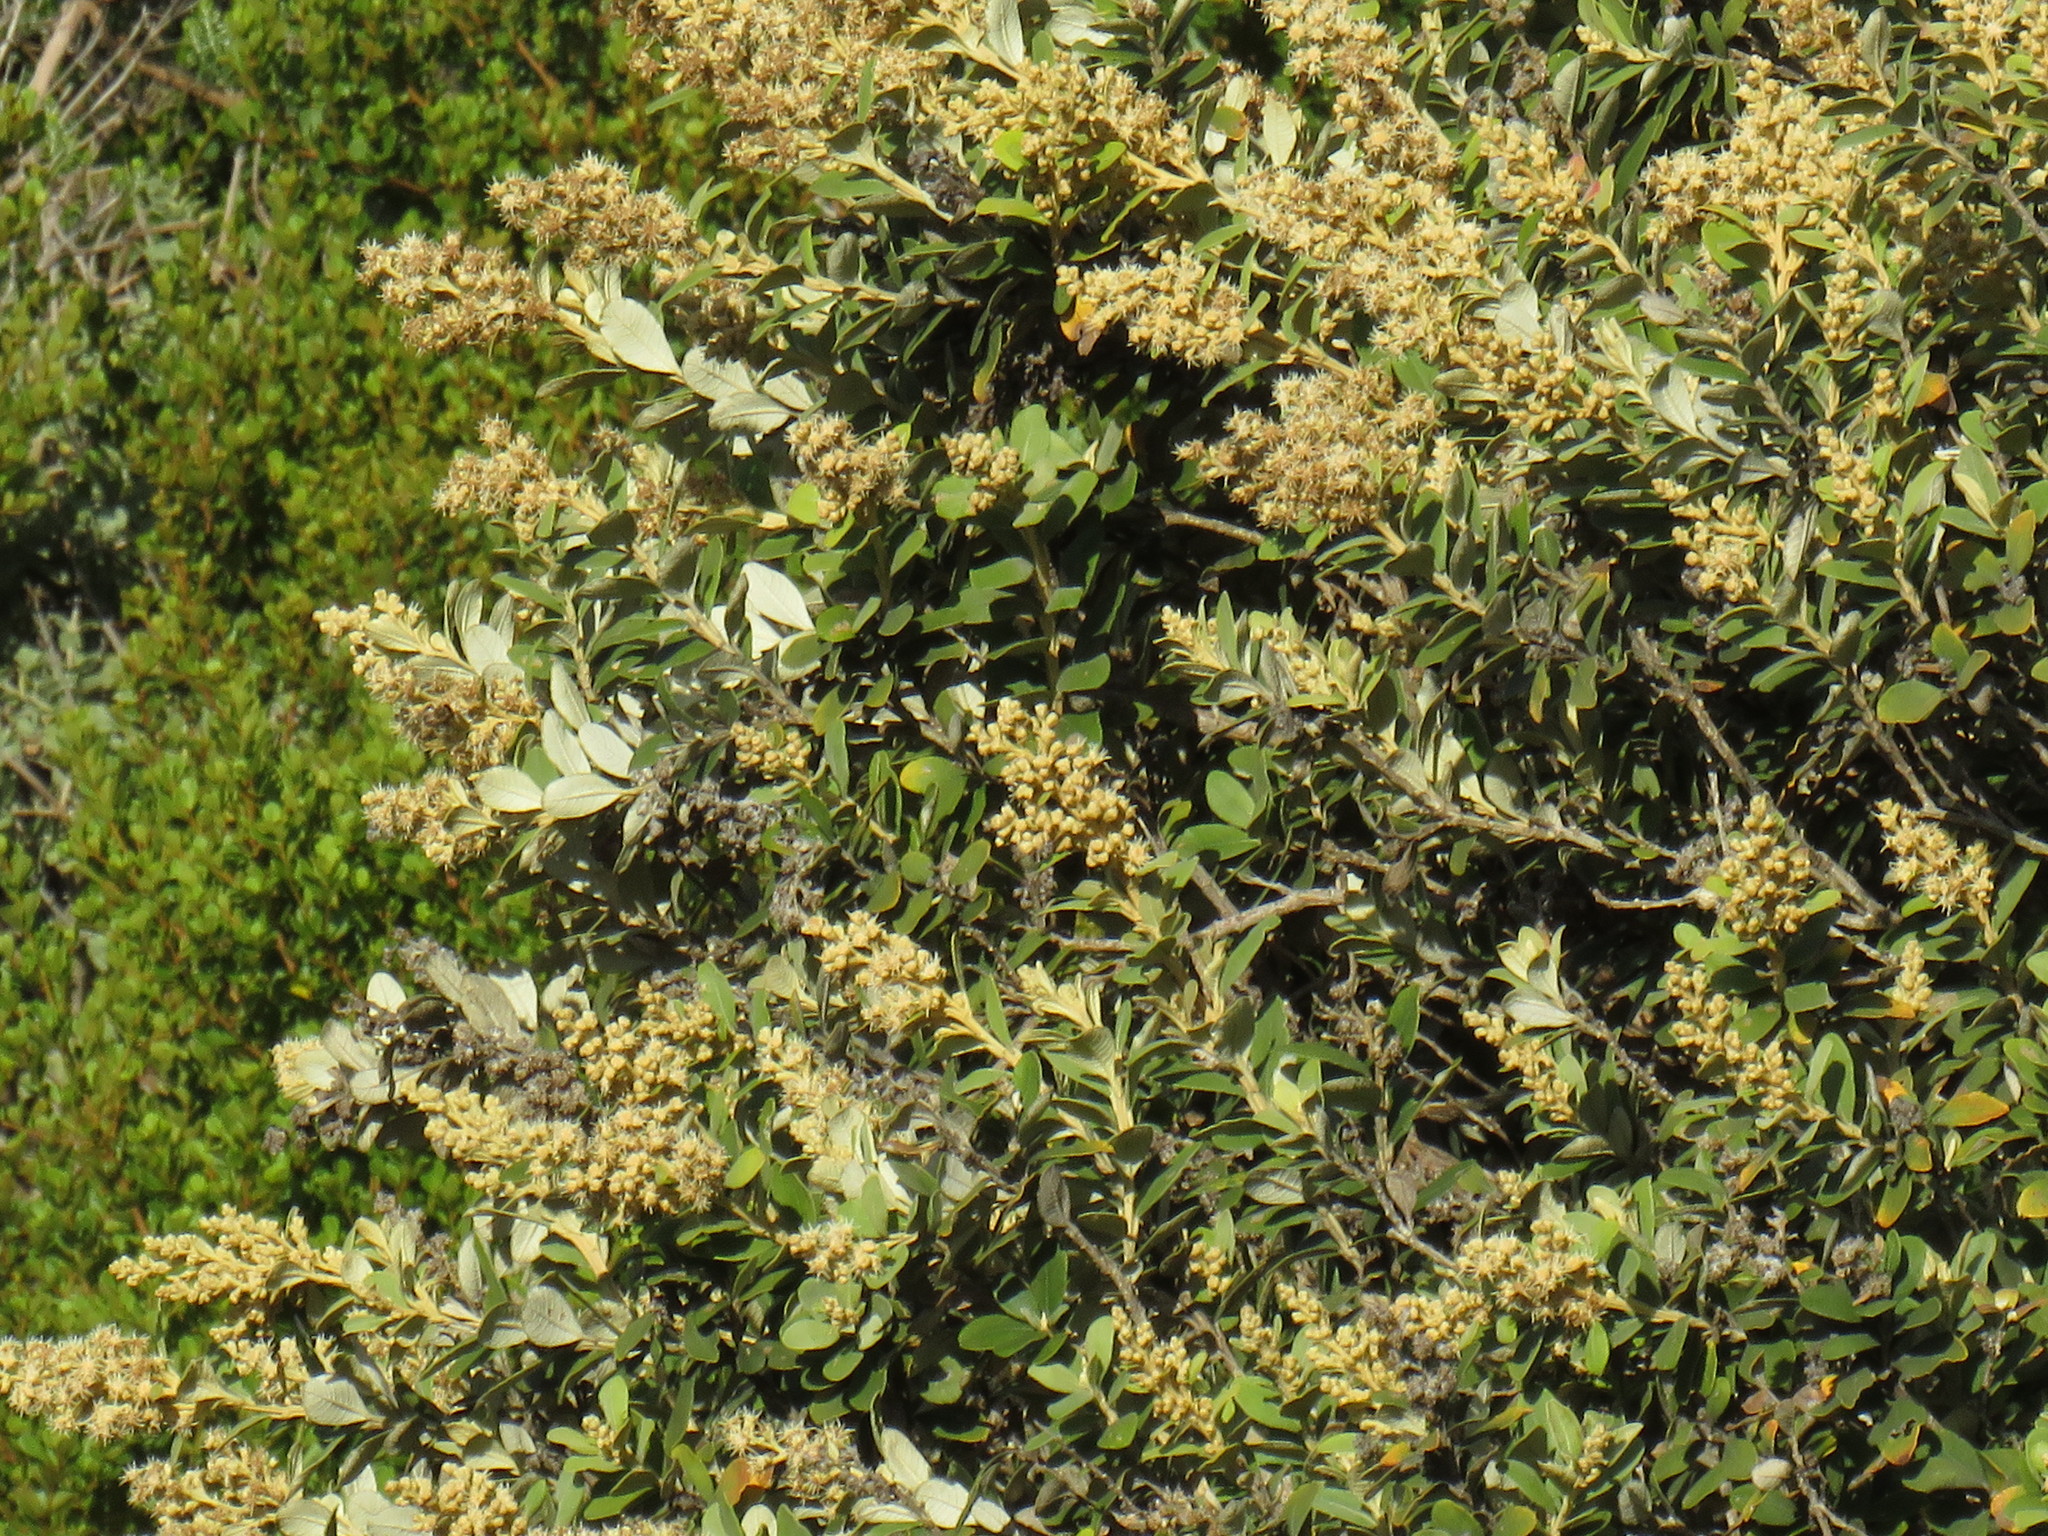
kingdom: Plantae
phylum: Tracheophyta
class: Magnoliopsida
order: Asterales
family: Asteraceae
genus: Tarchonanthus
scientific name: Tarchonanthus littoralis
